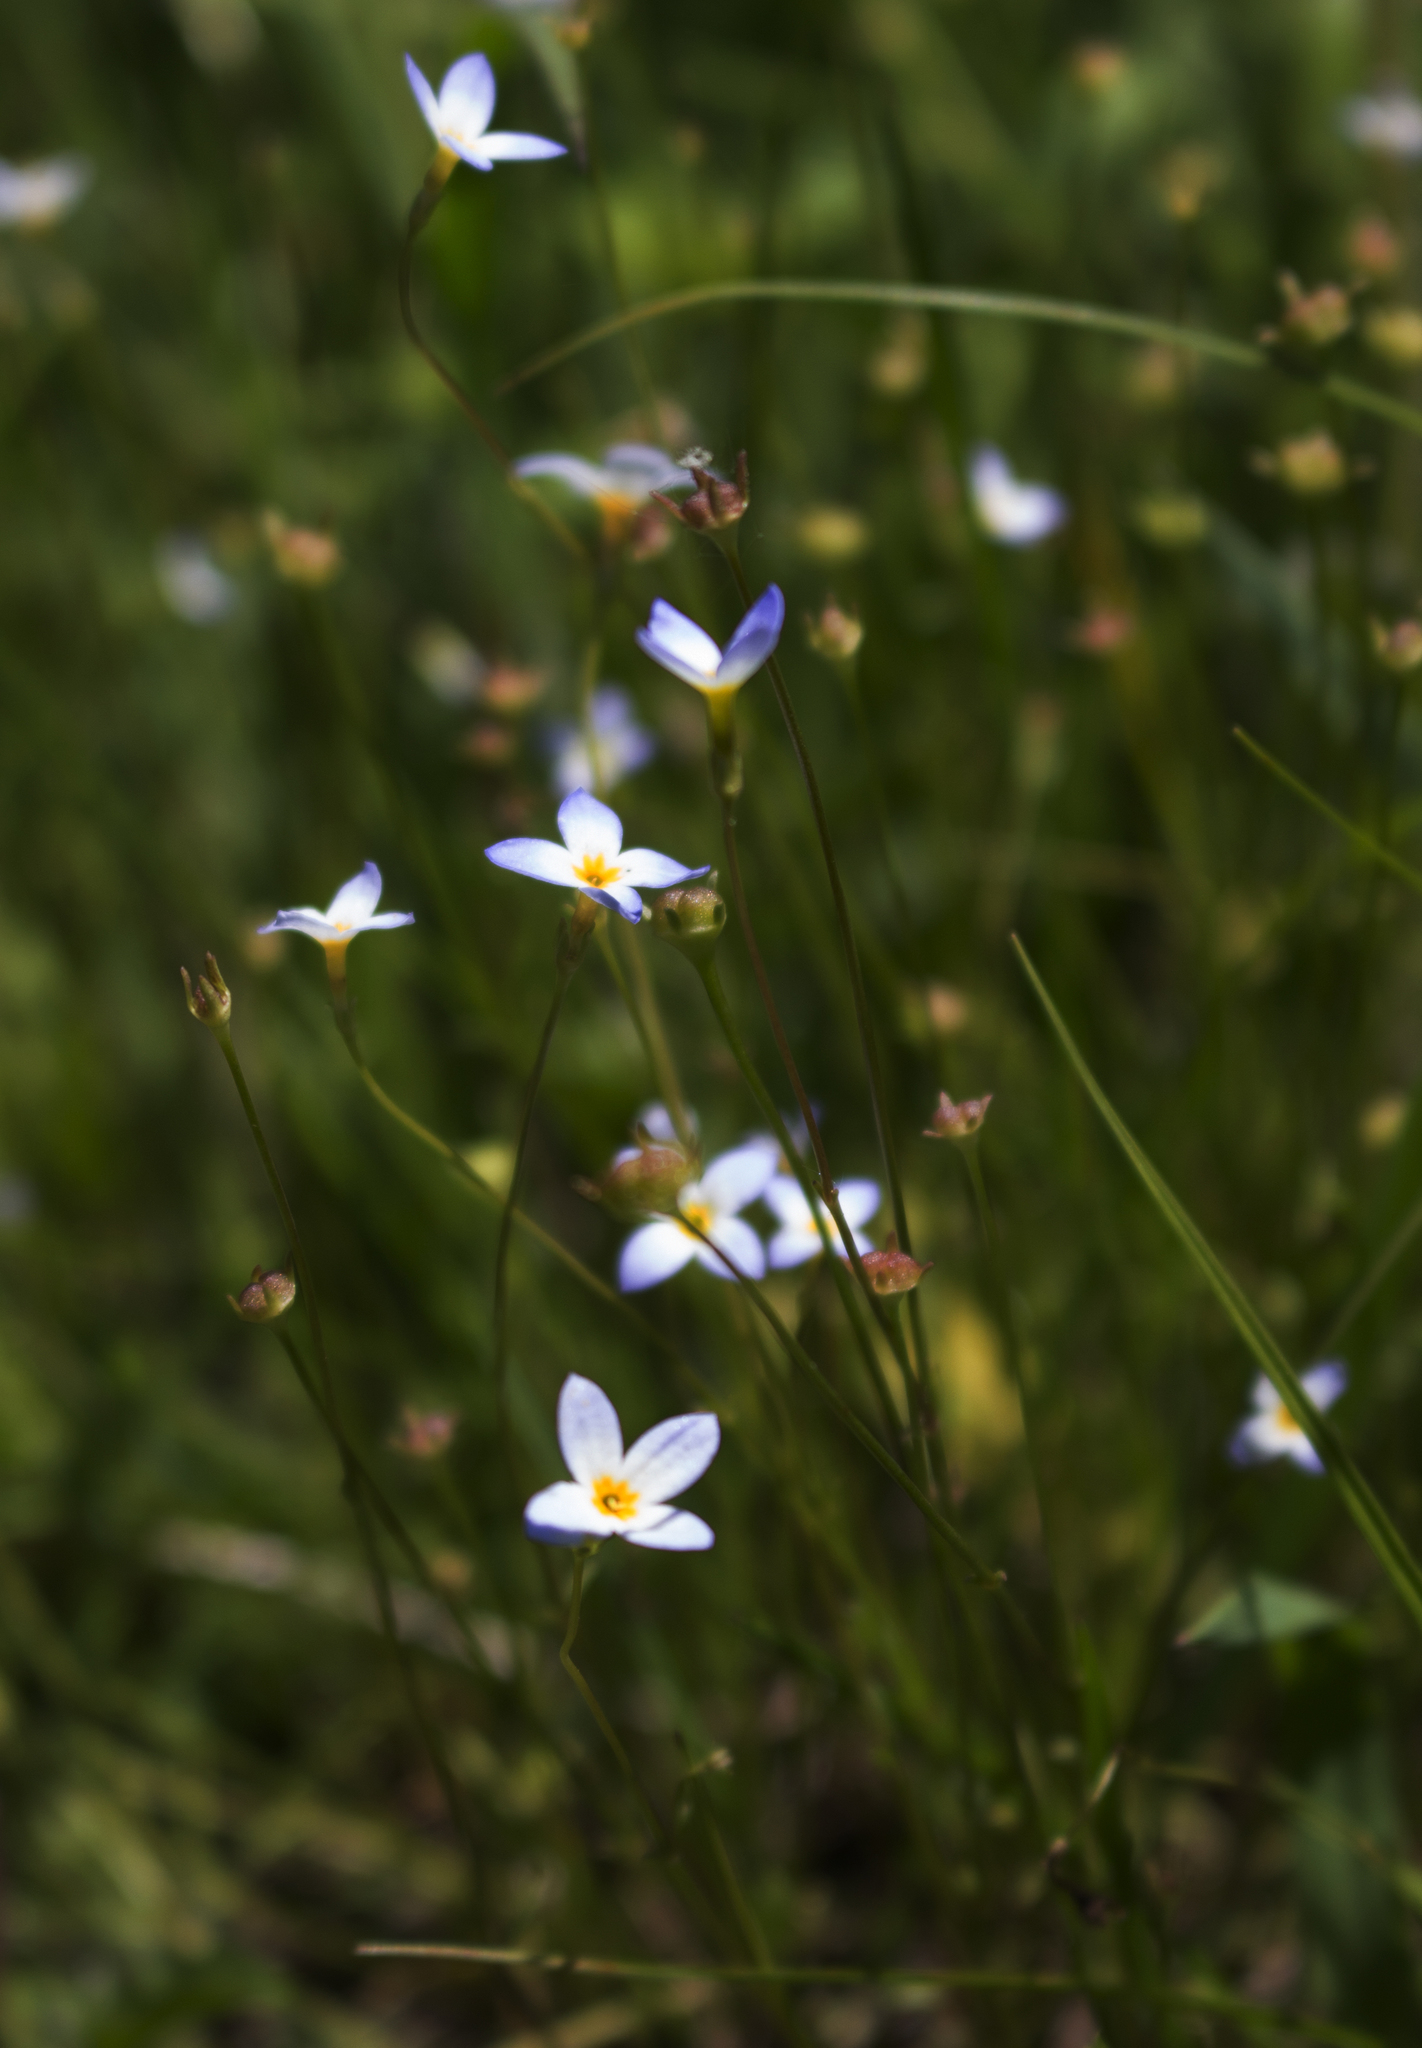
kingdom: Plantae
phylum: Tracheophyta
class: Magnoliopsida
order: Gentianales
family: Rubiaceae
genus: Houstonia
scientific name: Houstonia caerulea
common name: Bluets
